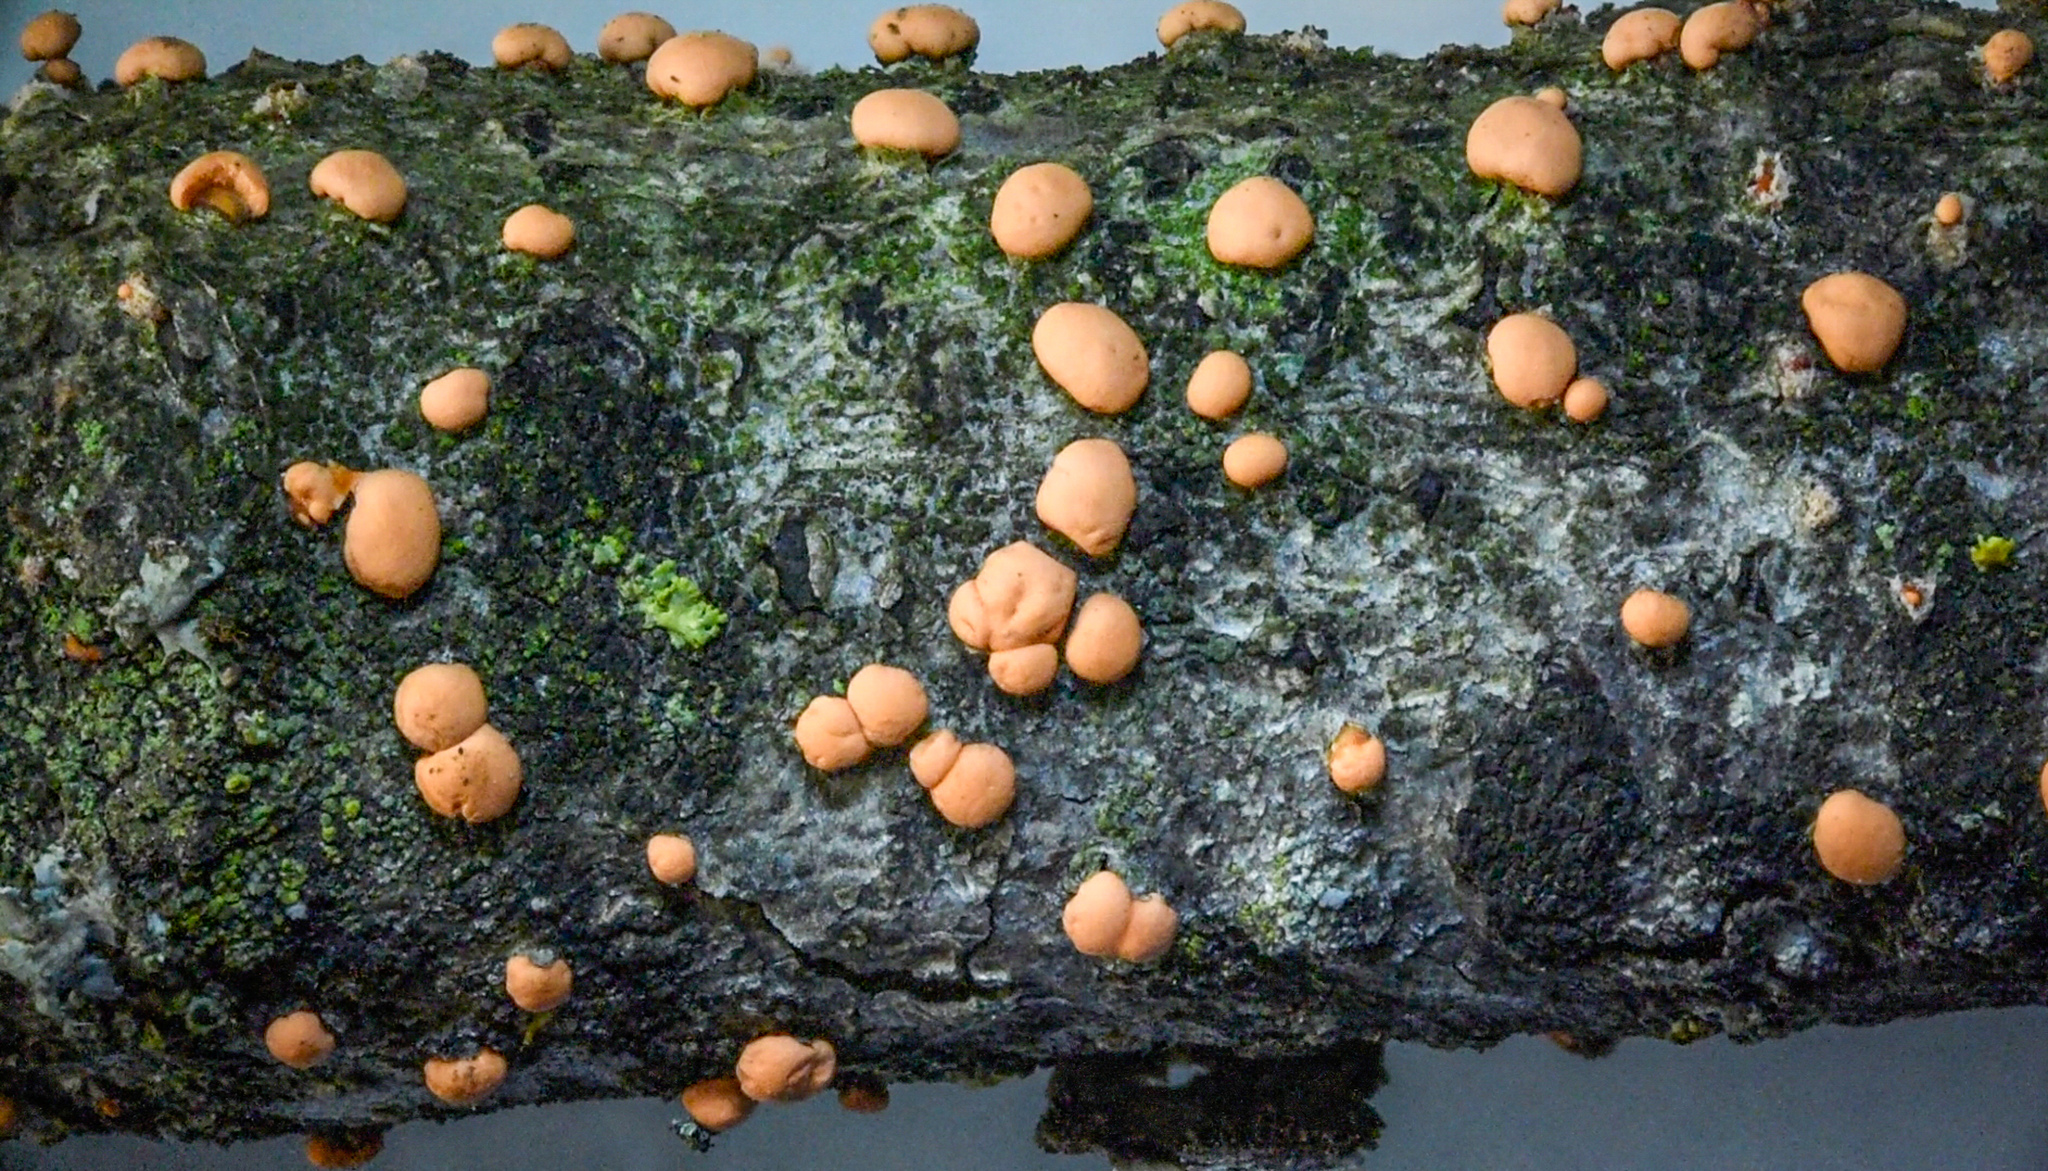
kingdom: Fungi
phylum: Ascomycota
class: Sordariomycetes
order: Hypocreales
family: Nectriaceae
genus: Nectria
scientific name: Nectria cinnabarina
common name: Coral spot
